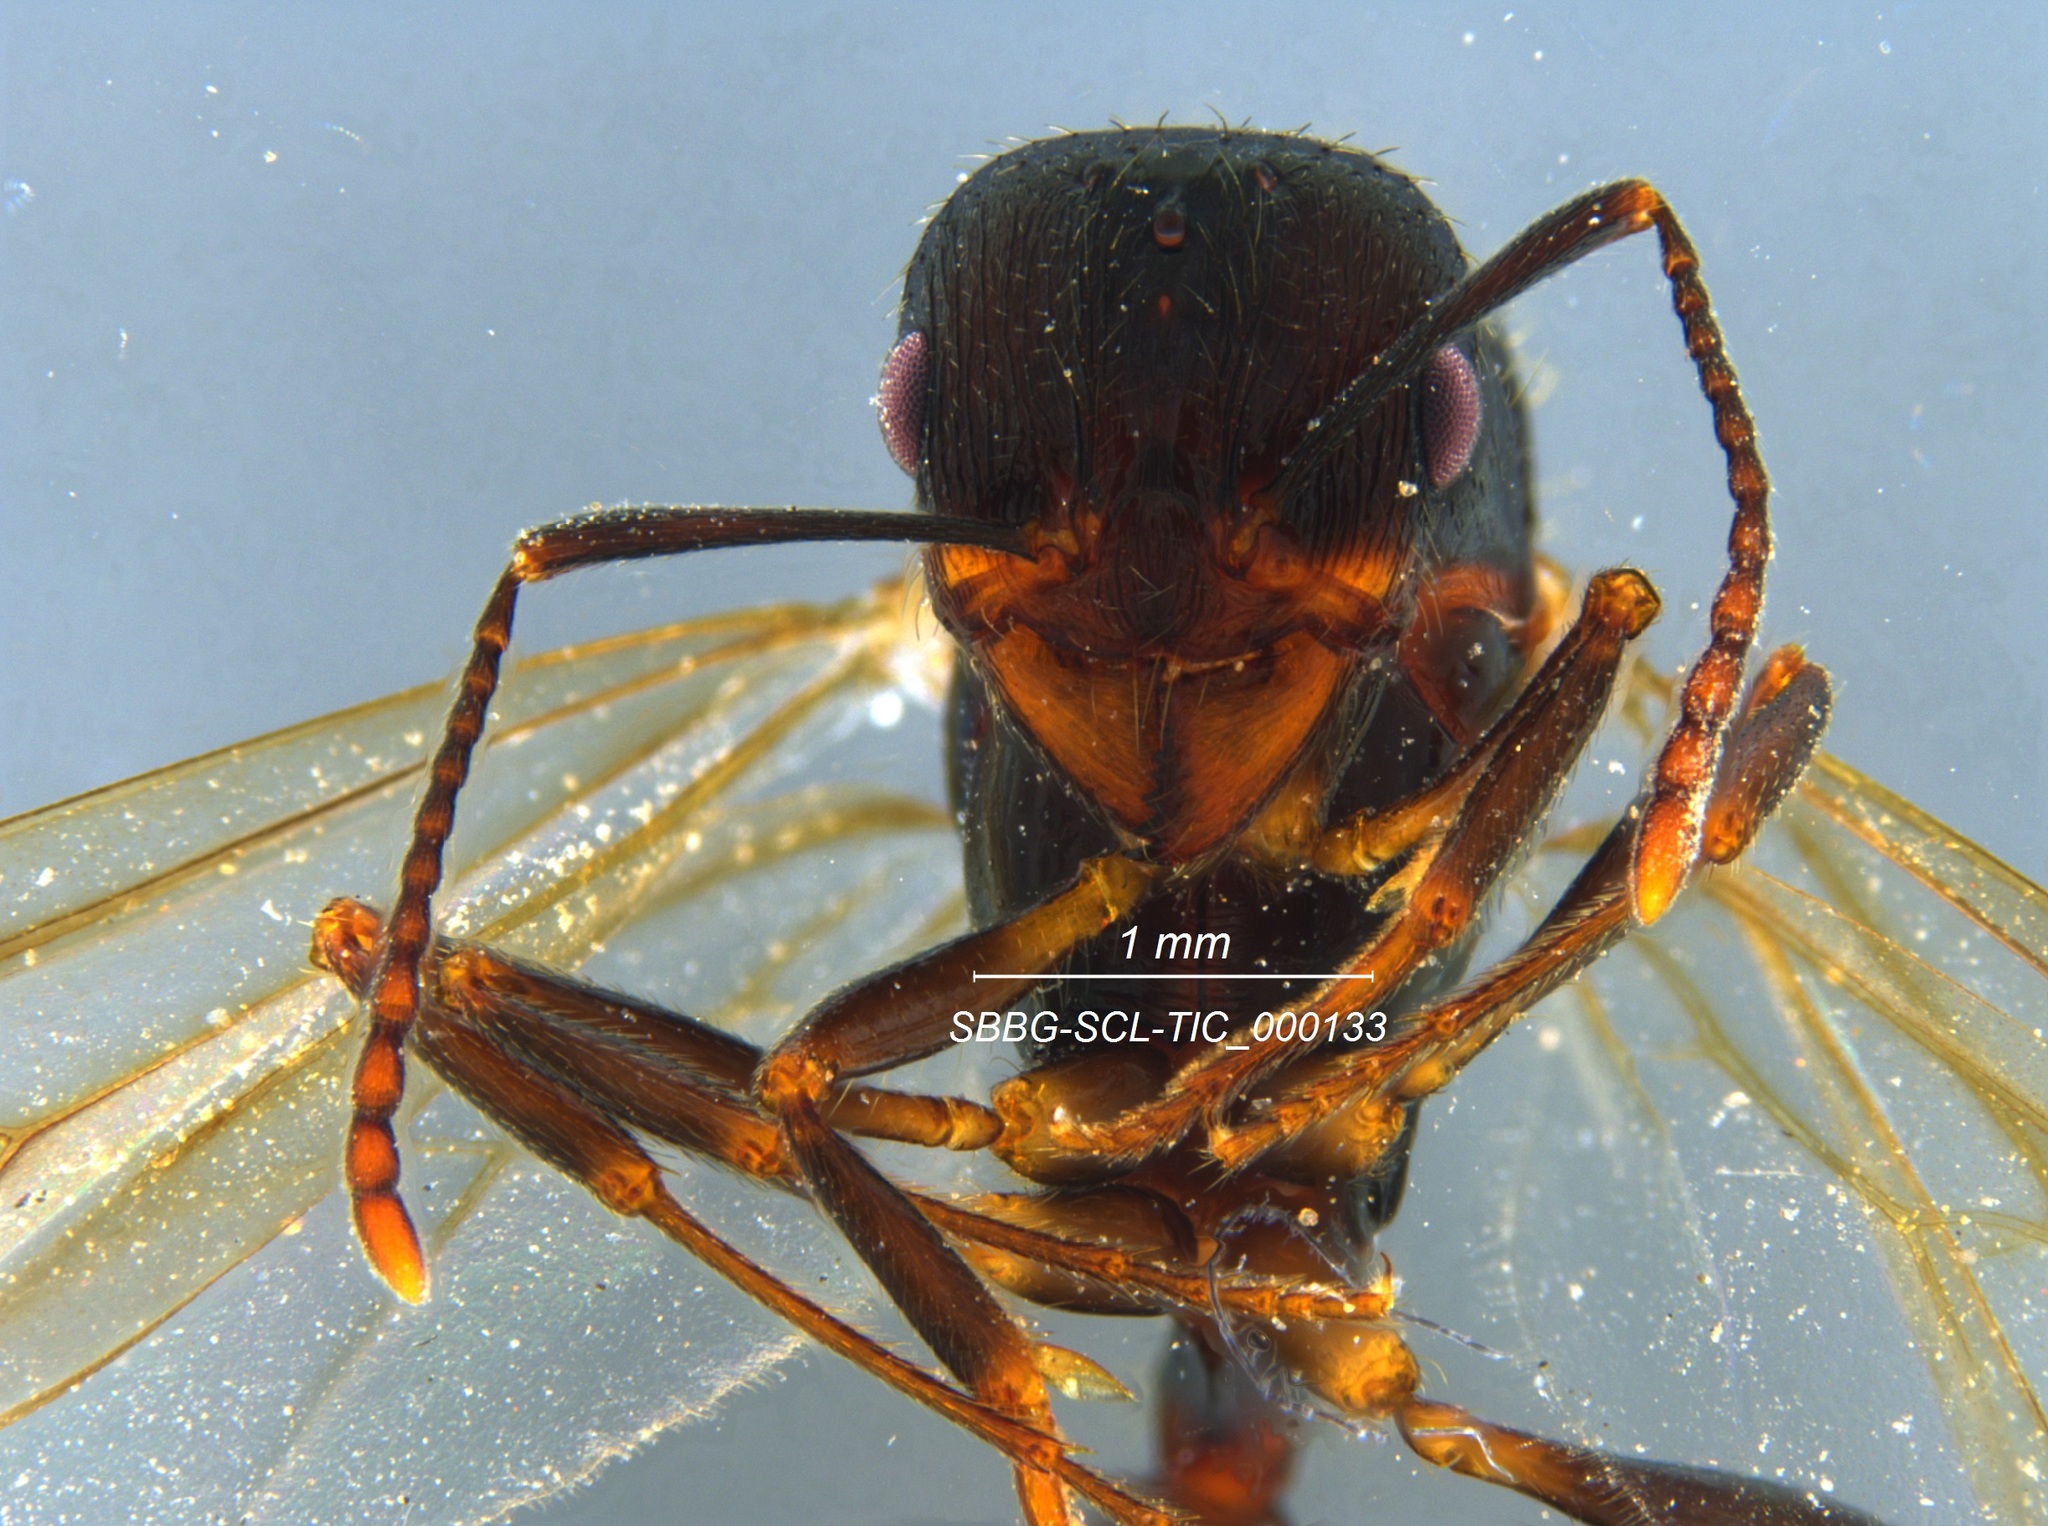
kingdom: Animalia
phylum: Arthropoda
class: Insecta
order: Hymenoptera
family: Formicidae
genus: Aphaenogaster
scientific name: Aphaenogaster patruelis
